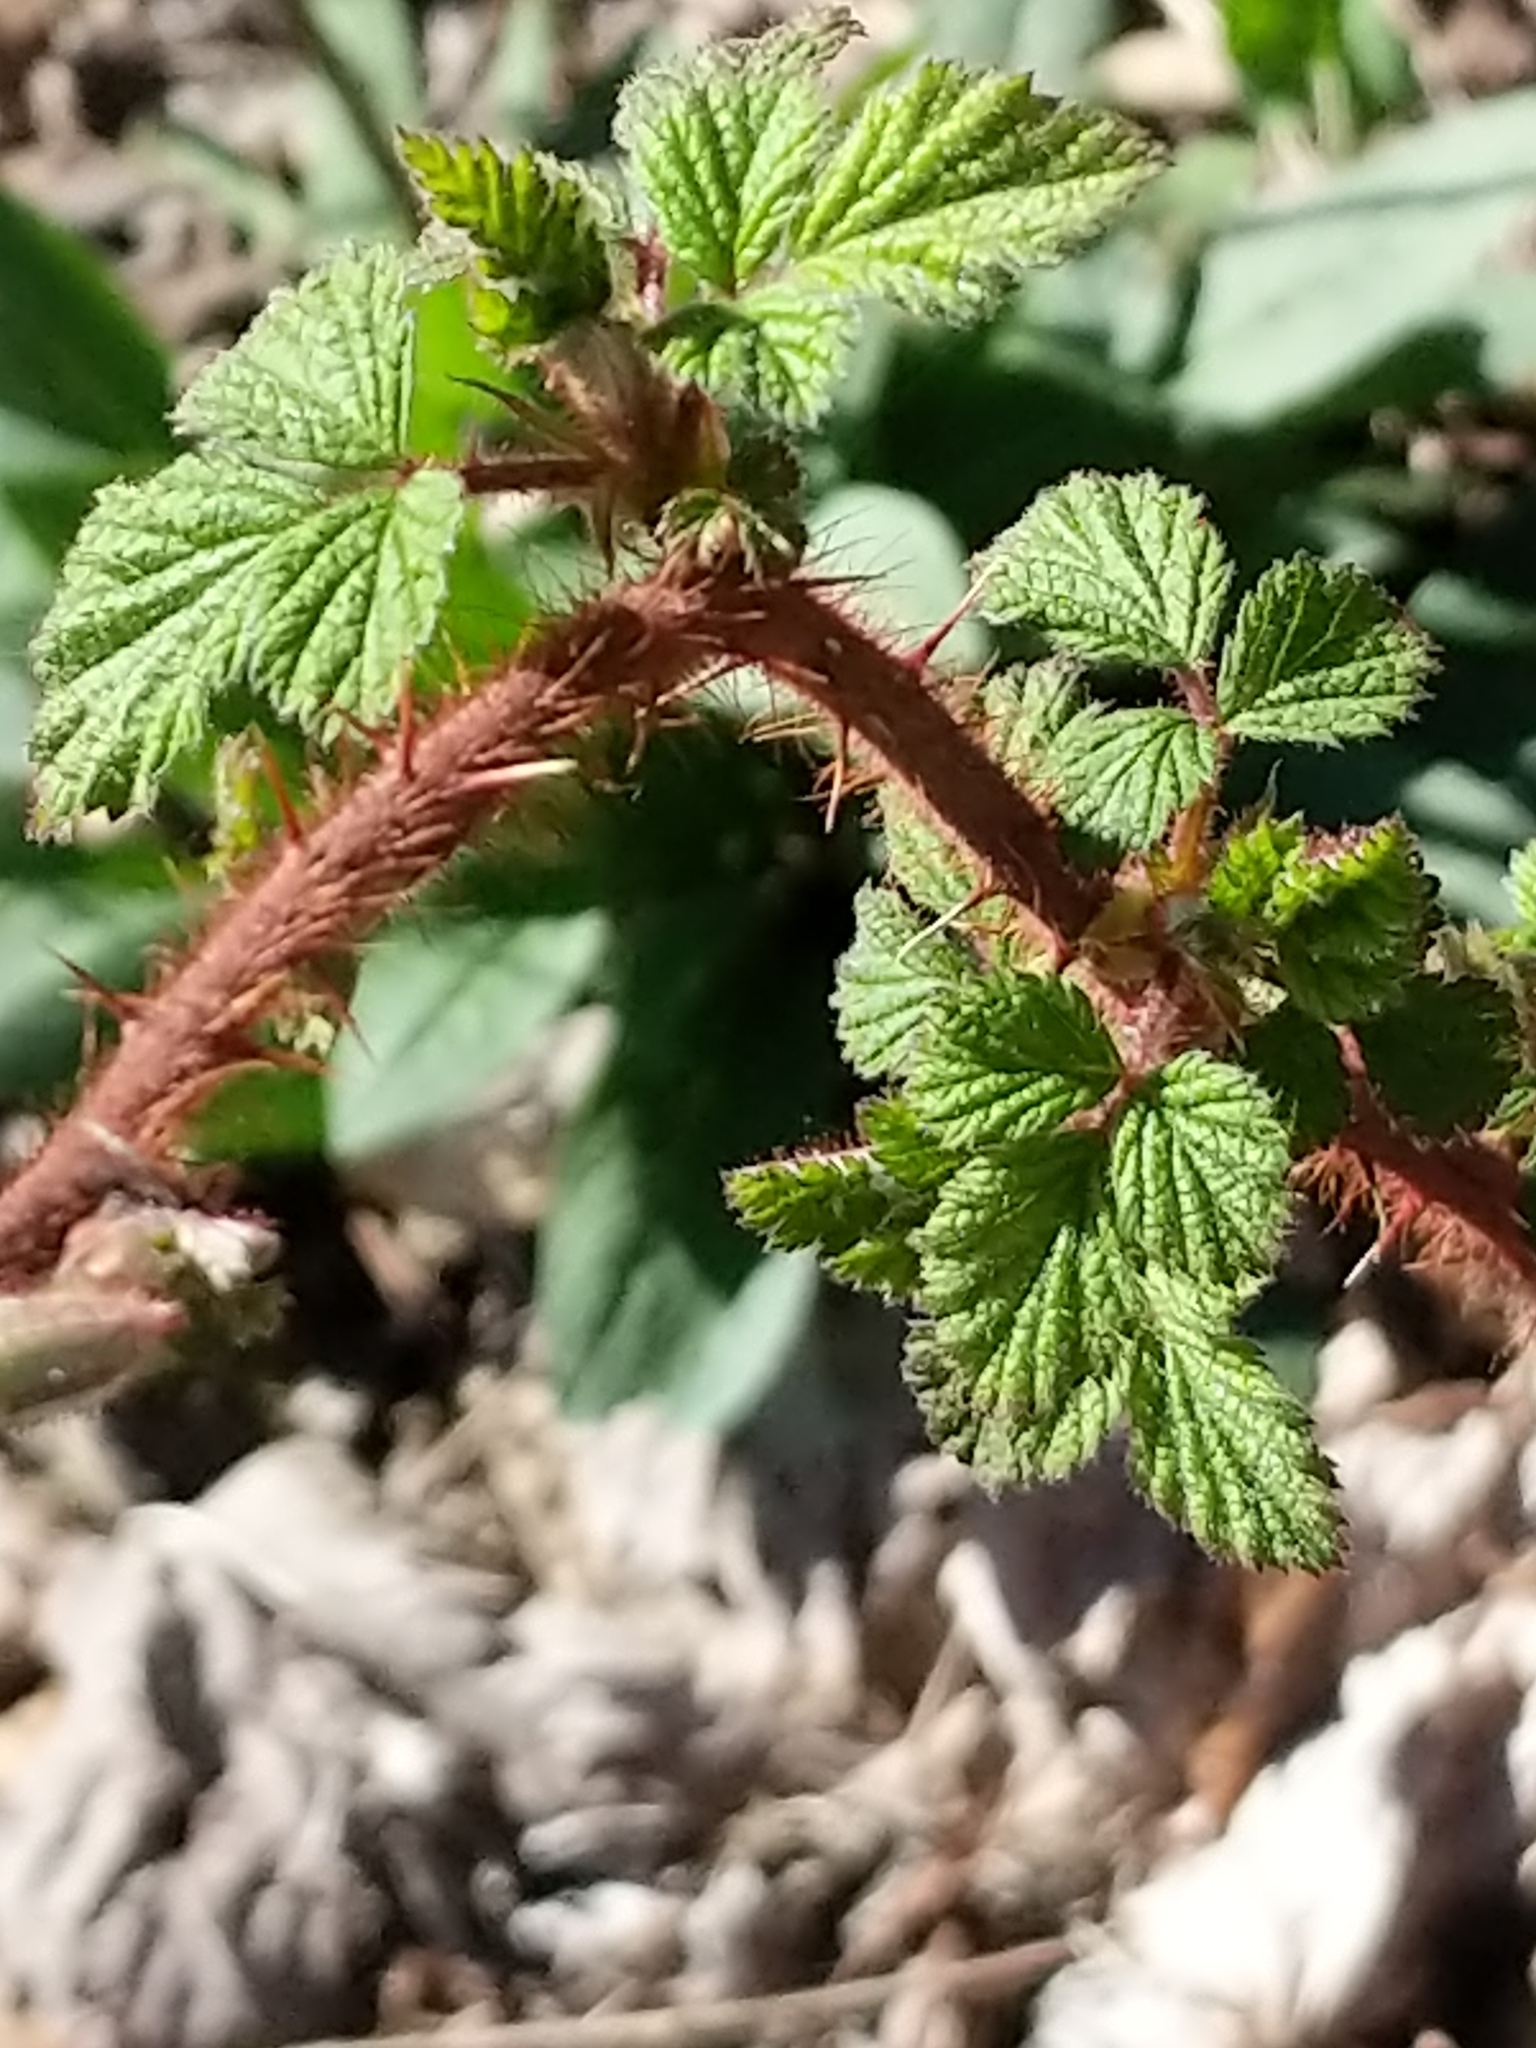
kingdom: Plantae
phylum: Tracheophyta
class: Magnoliopsida
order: Rosales
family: Rosaceae
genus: Rubus
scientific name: Rubus phoenicolasius
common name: Japanese wineberry
